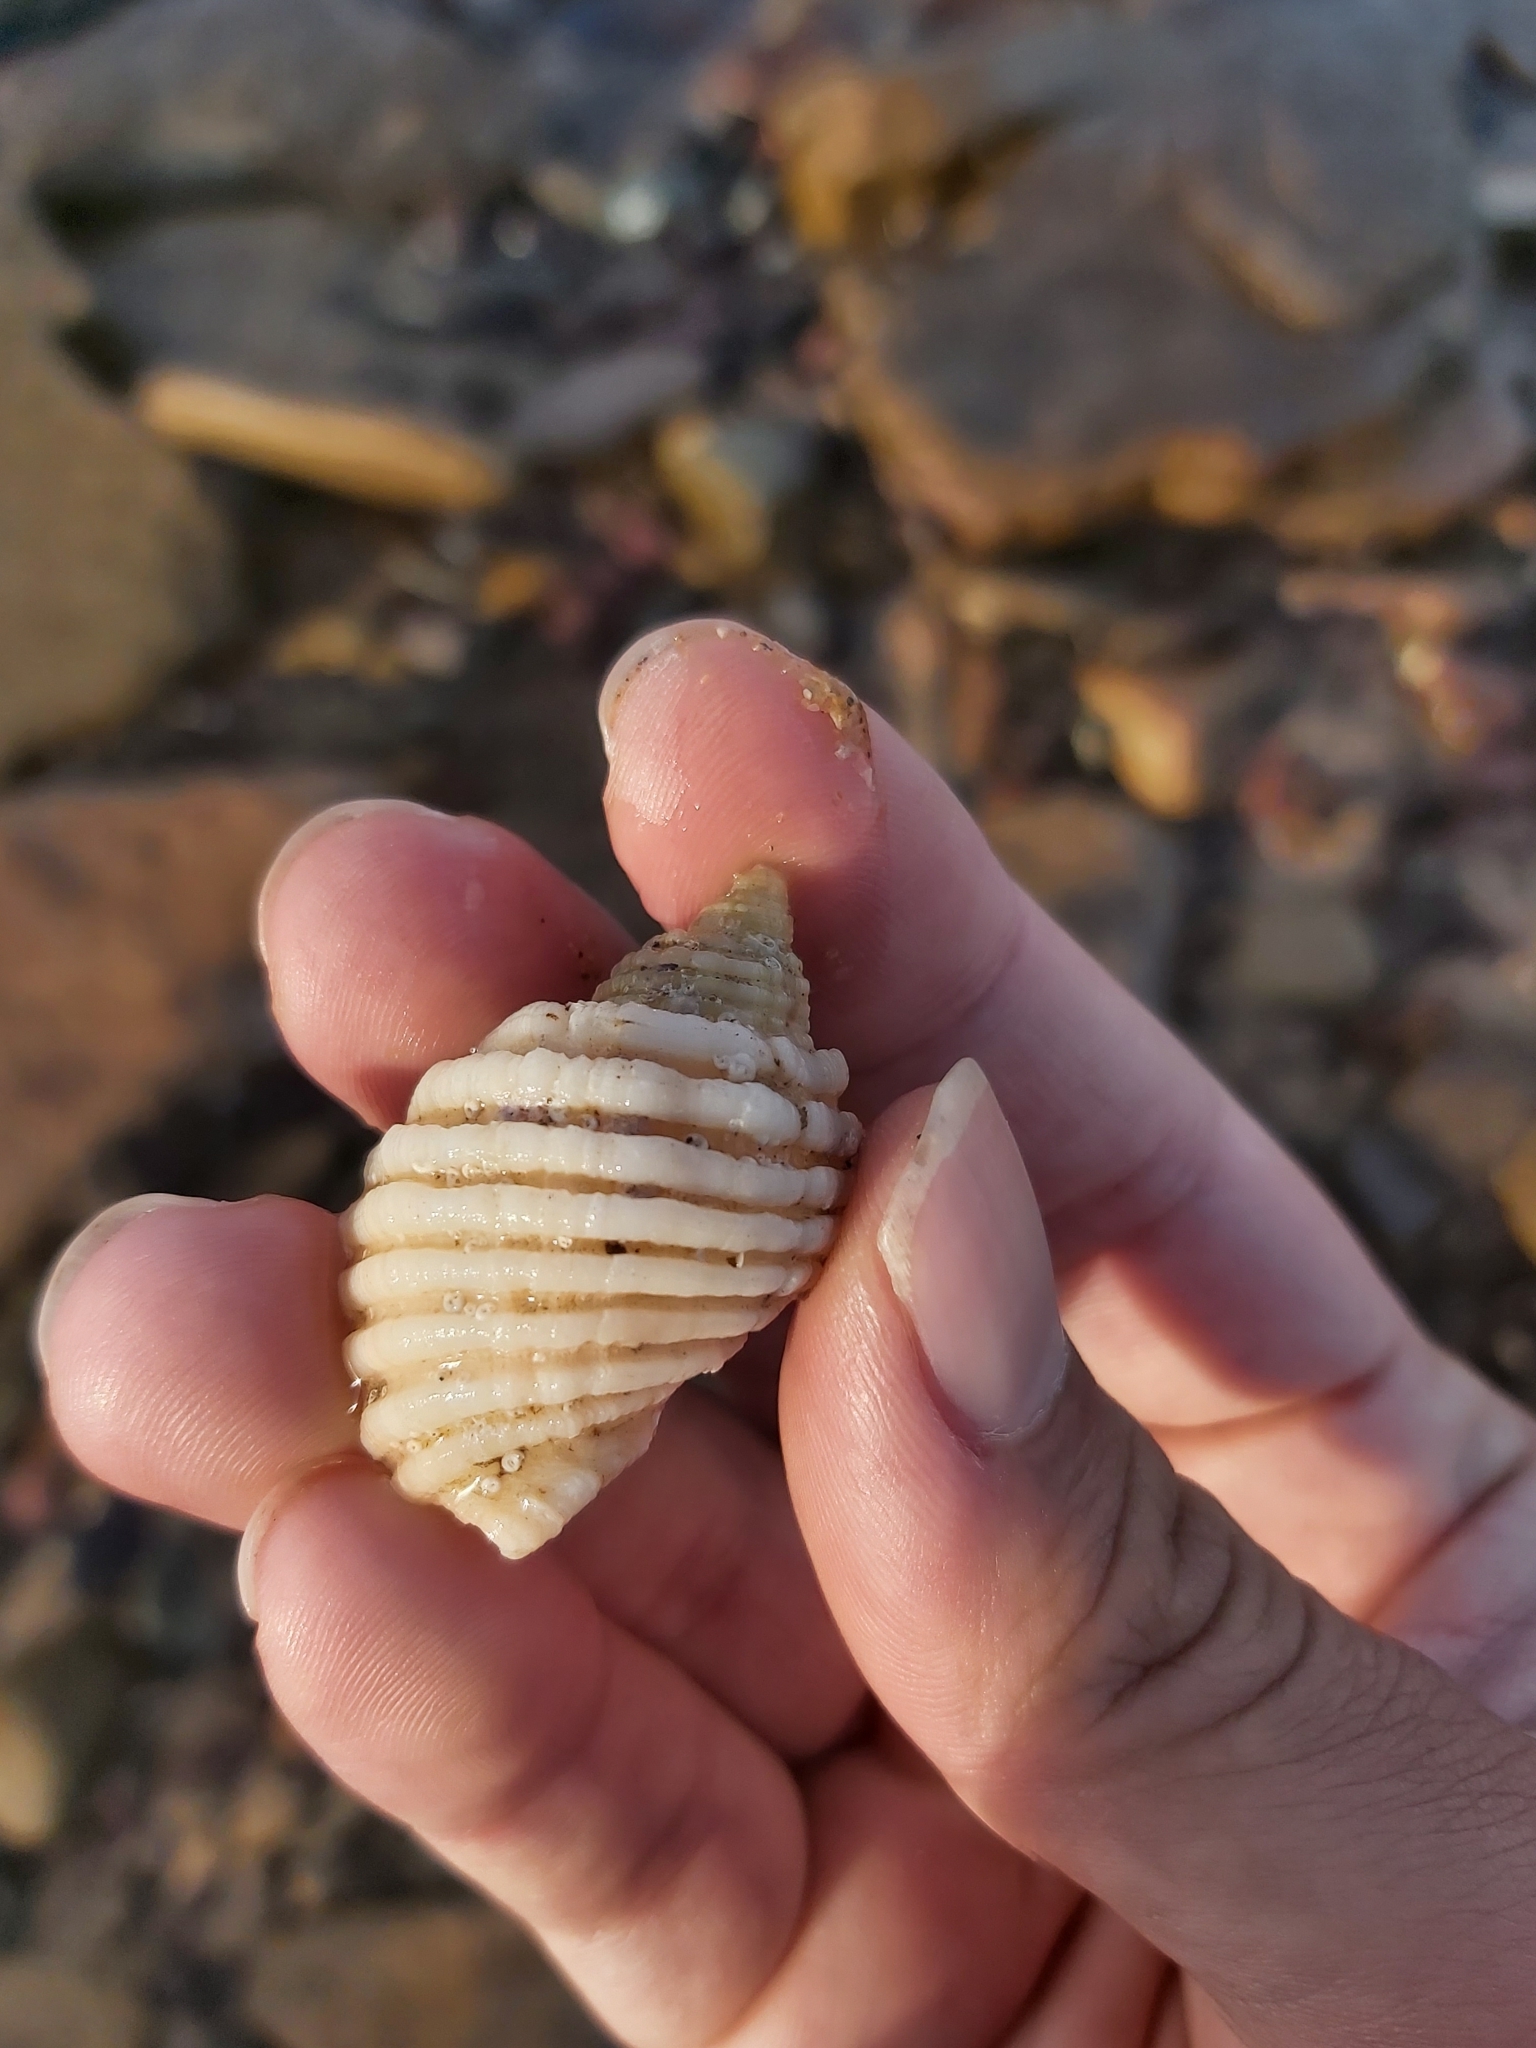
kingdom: Animalia
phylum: Mollusca
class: Gastropoda
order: Neogastropoda
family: Muricidae
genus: Dicathais
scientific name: Dicathais orbita
